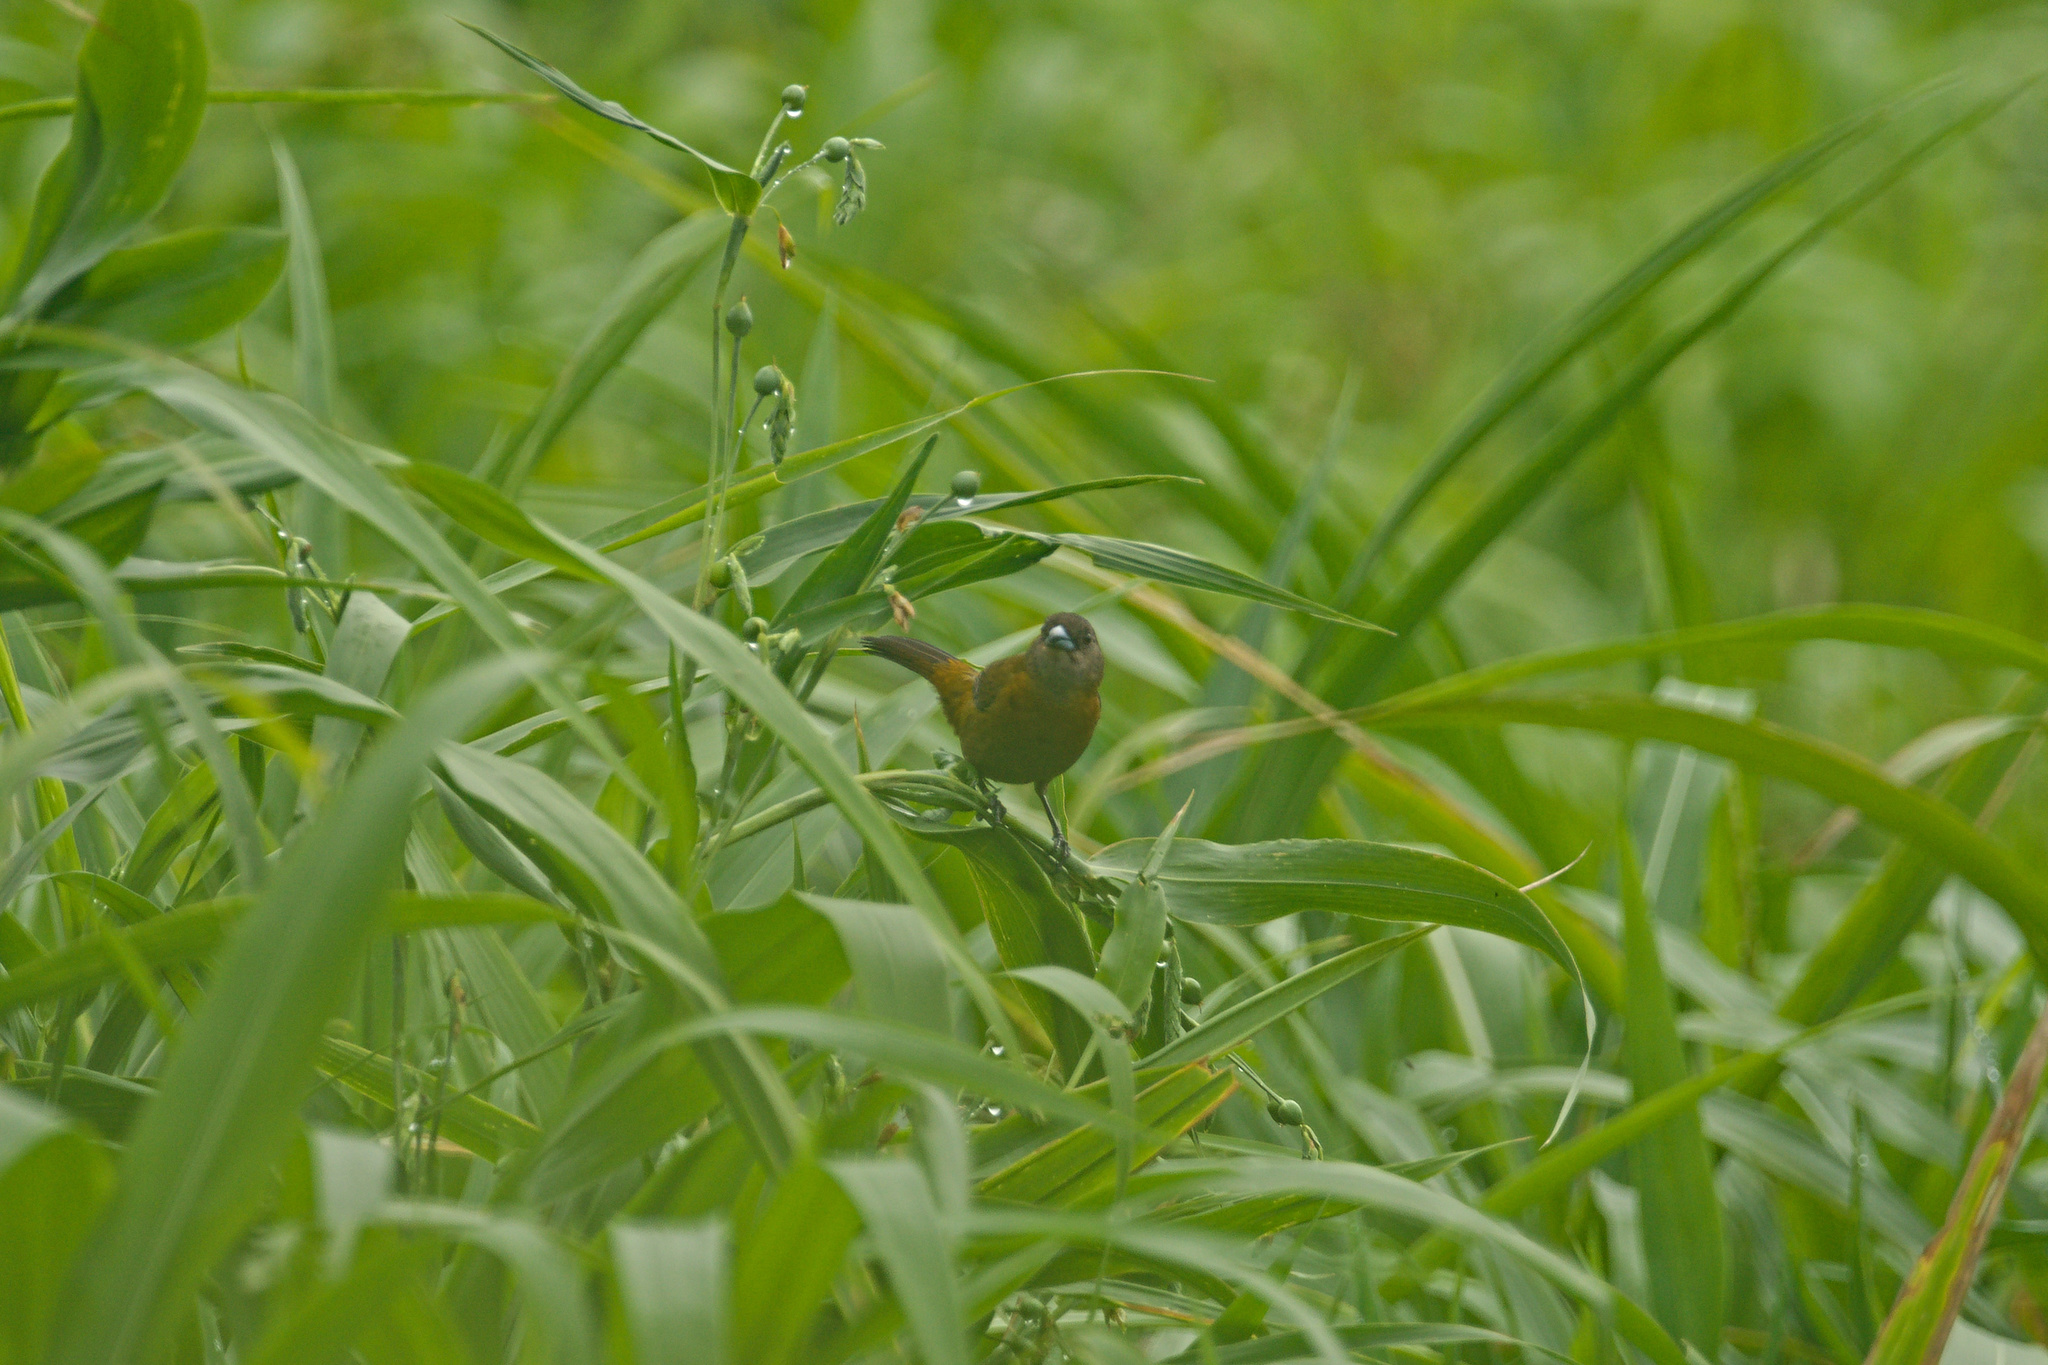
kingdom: Animalia
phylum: Chordata
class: Aves
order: Passeriformes
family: Thraupidae
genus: Ramphocelus
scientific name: Ramphocelus passerinii
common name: Passerini's tanager
